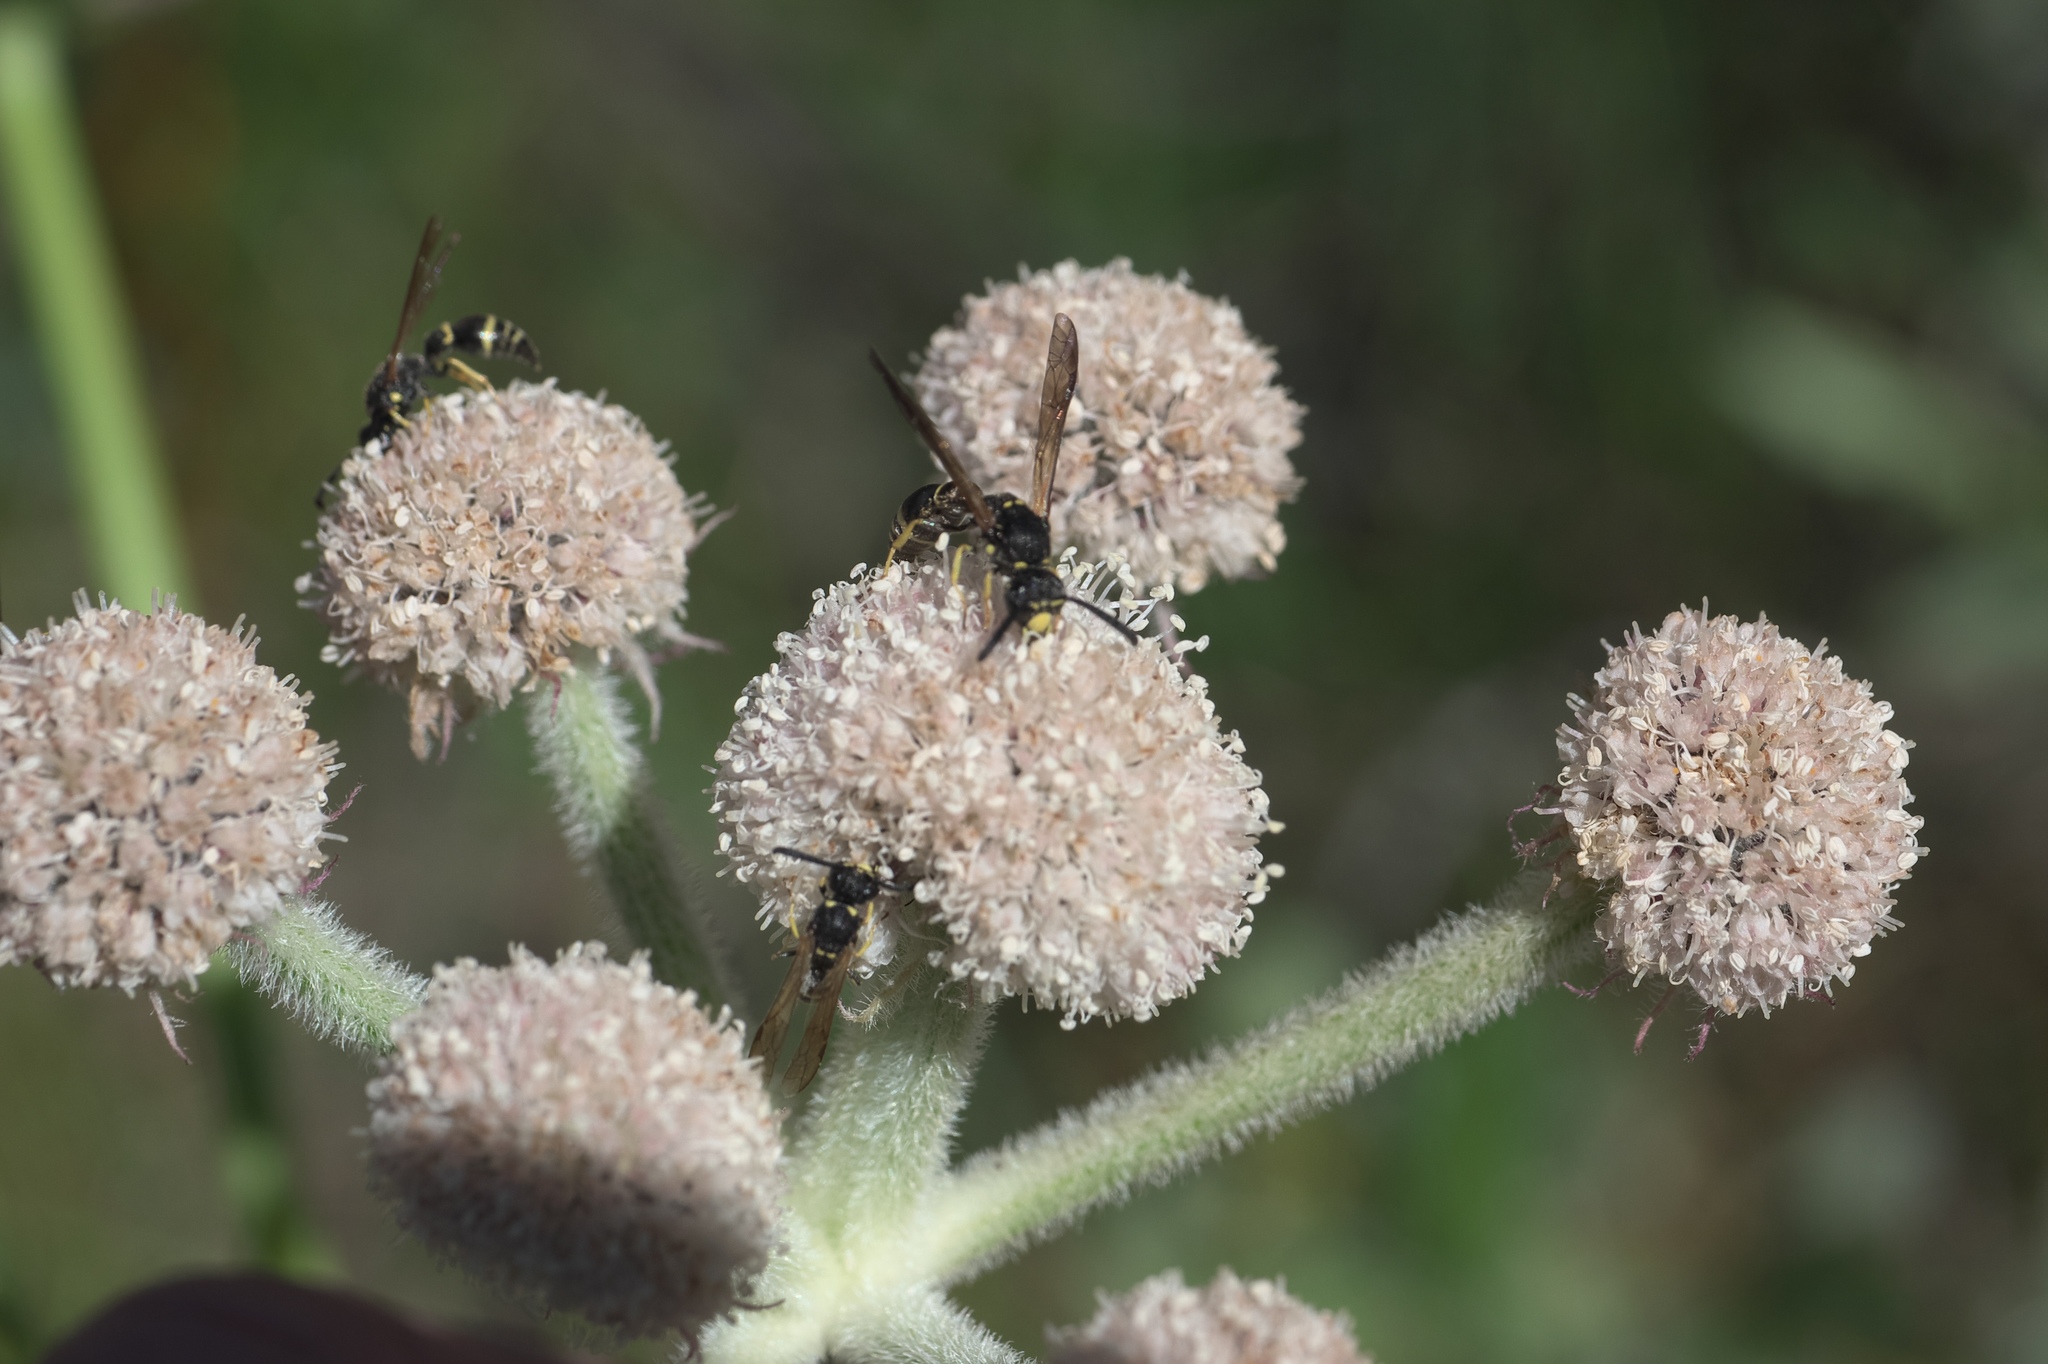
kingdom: Plantae
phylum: Tracheophyta
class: Magnoliopsida
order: Apiales
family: Apiaceae
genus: Angelica
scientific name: Angelica capitellata
